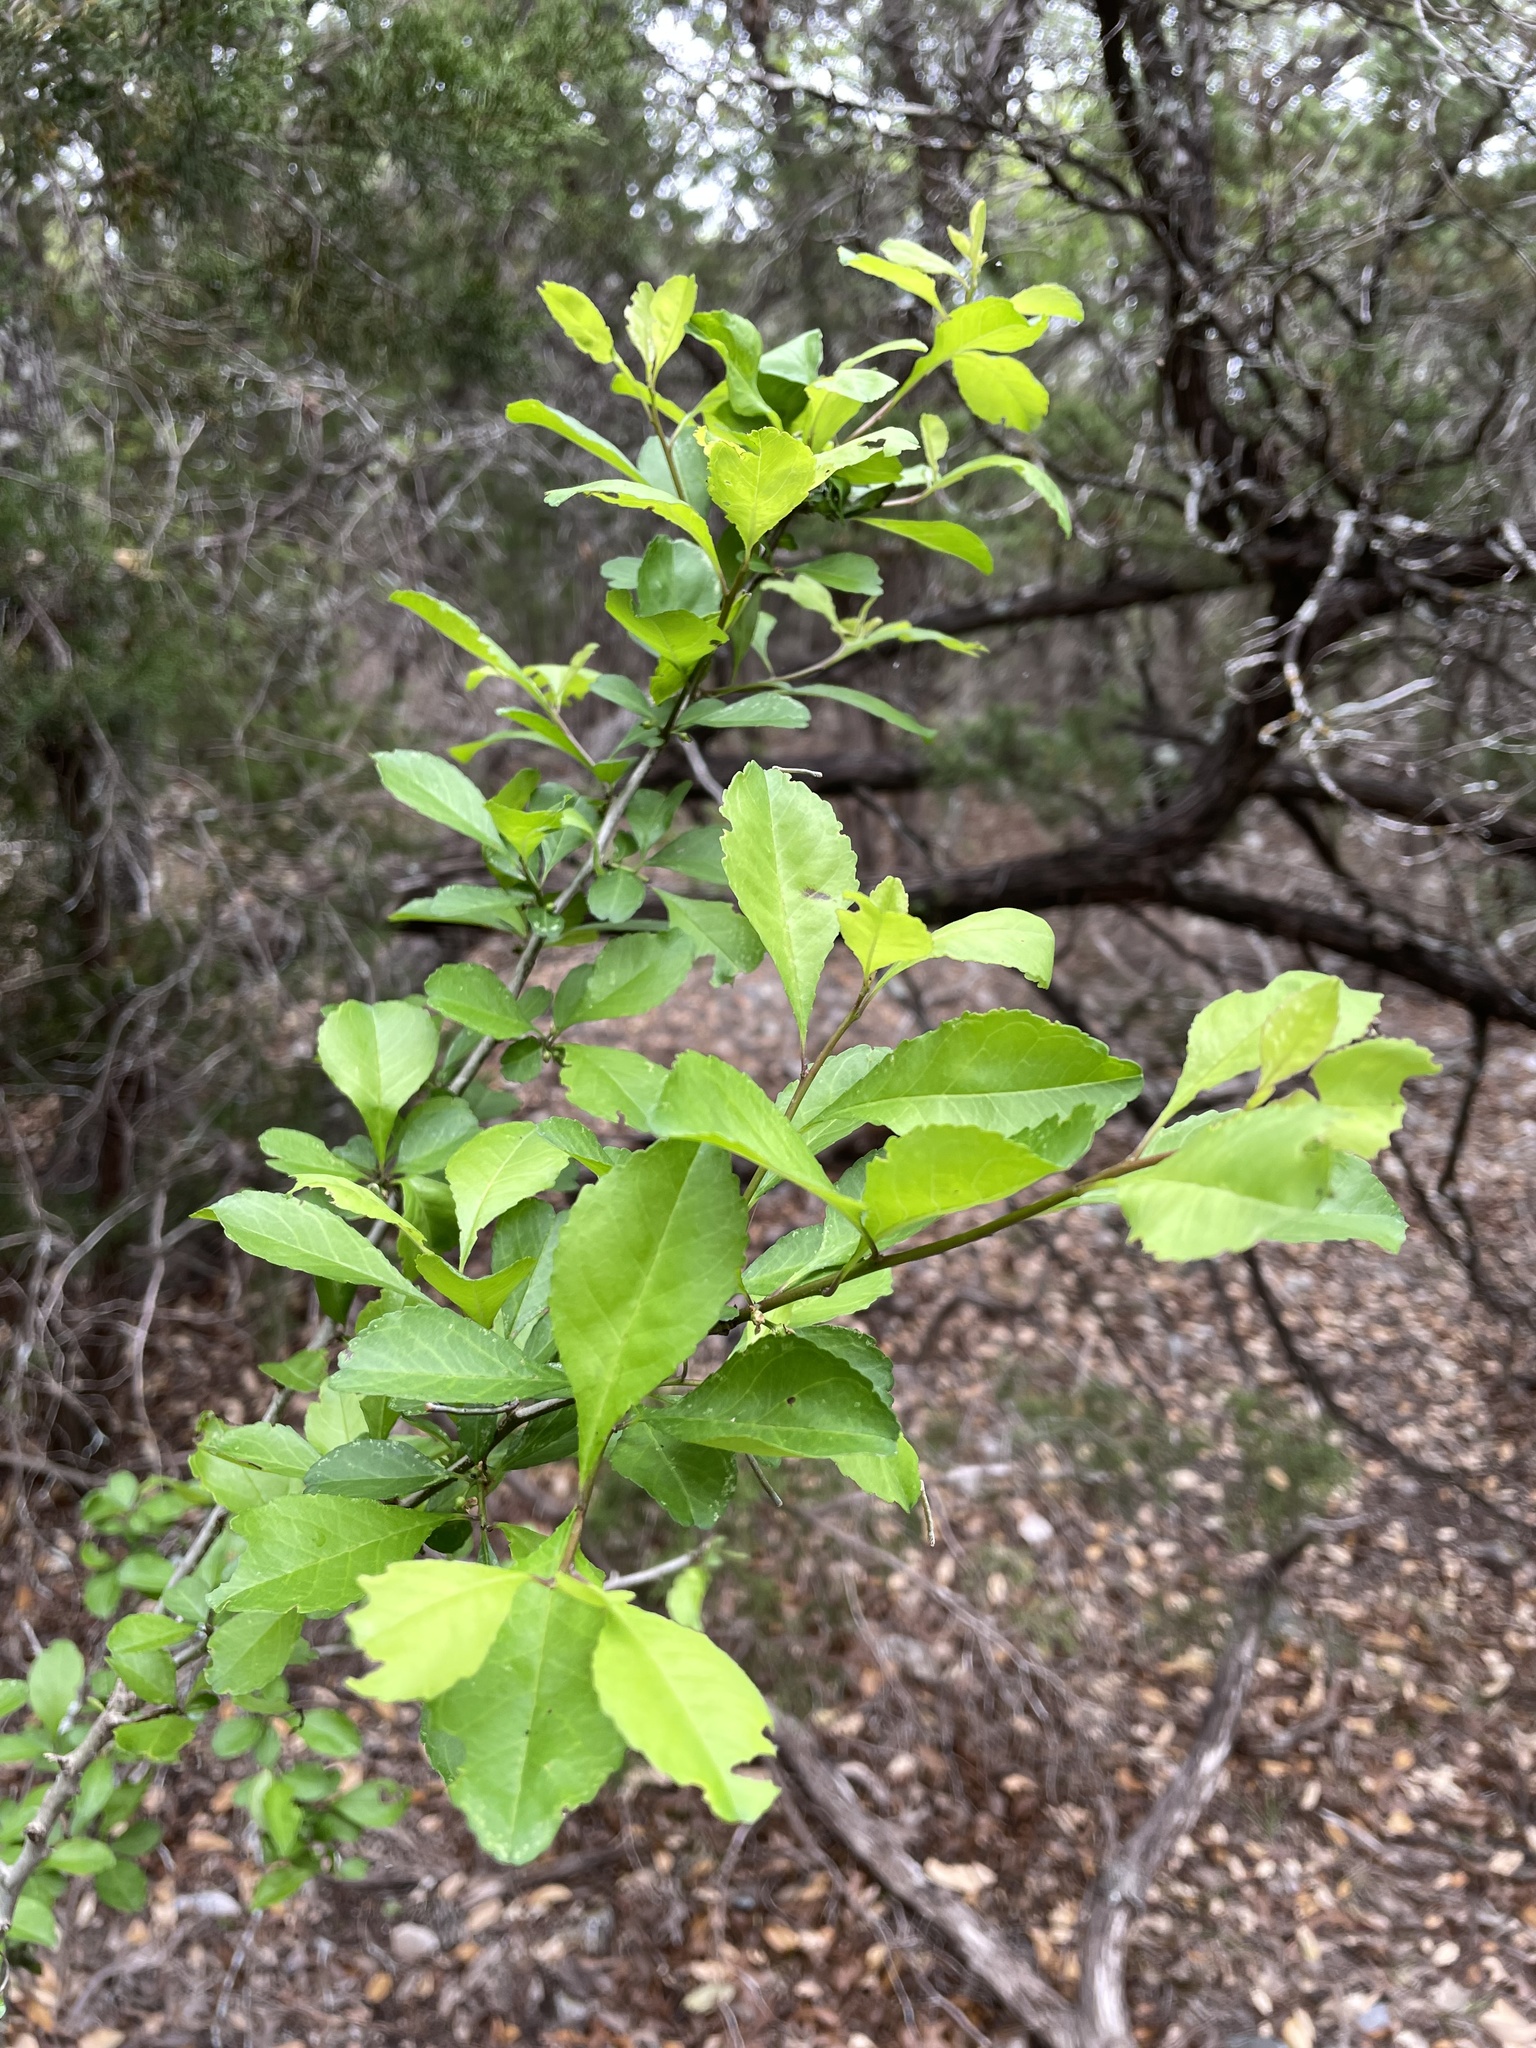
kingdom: Plantae
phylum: Tracheophyta
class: Magnoliopsida
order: Aquifoliales
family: Aquifoliaceae
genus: Ilex
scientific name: Ilex decidua
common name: Possum-haw
